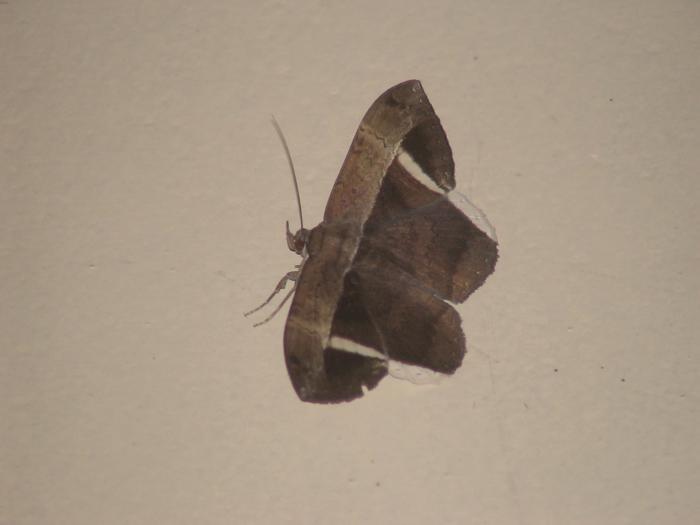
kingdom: Animalia
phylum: Arthropoda
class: Insecta
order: Lepidoptera
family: Erebidae
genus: Hemeroblemma
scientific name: Hemeroblemma mexicana
